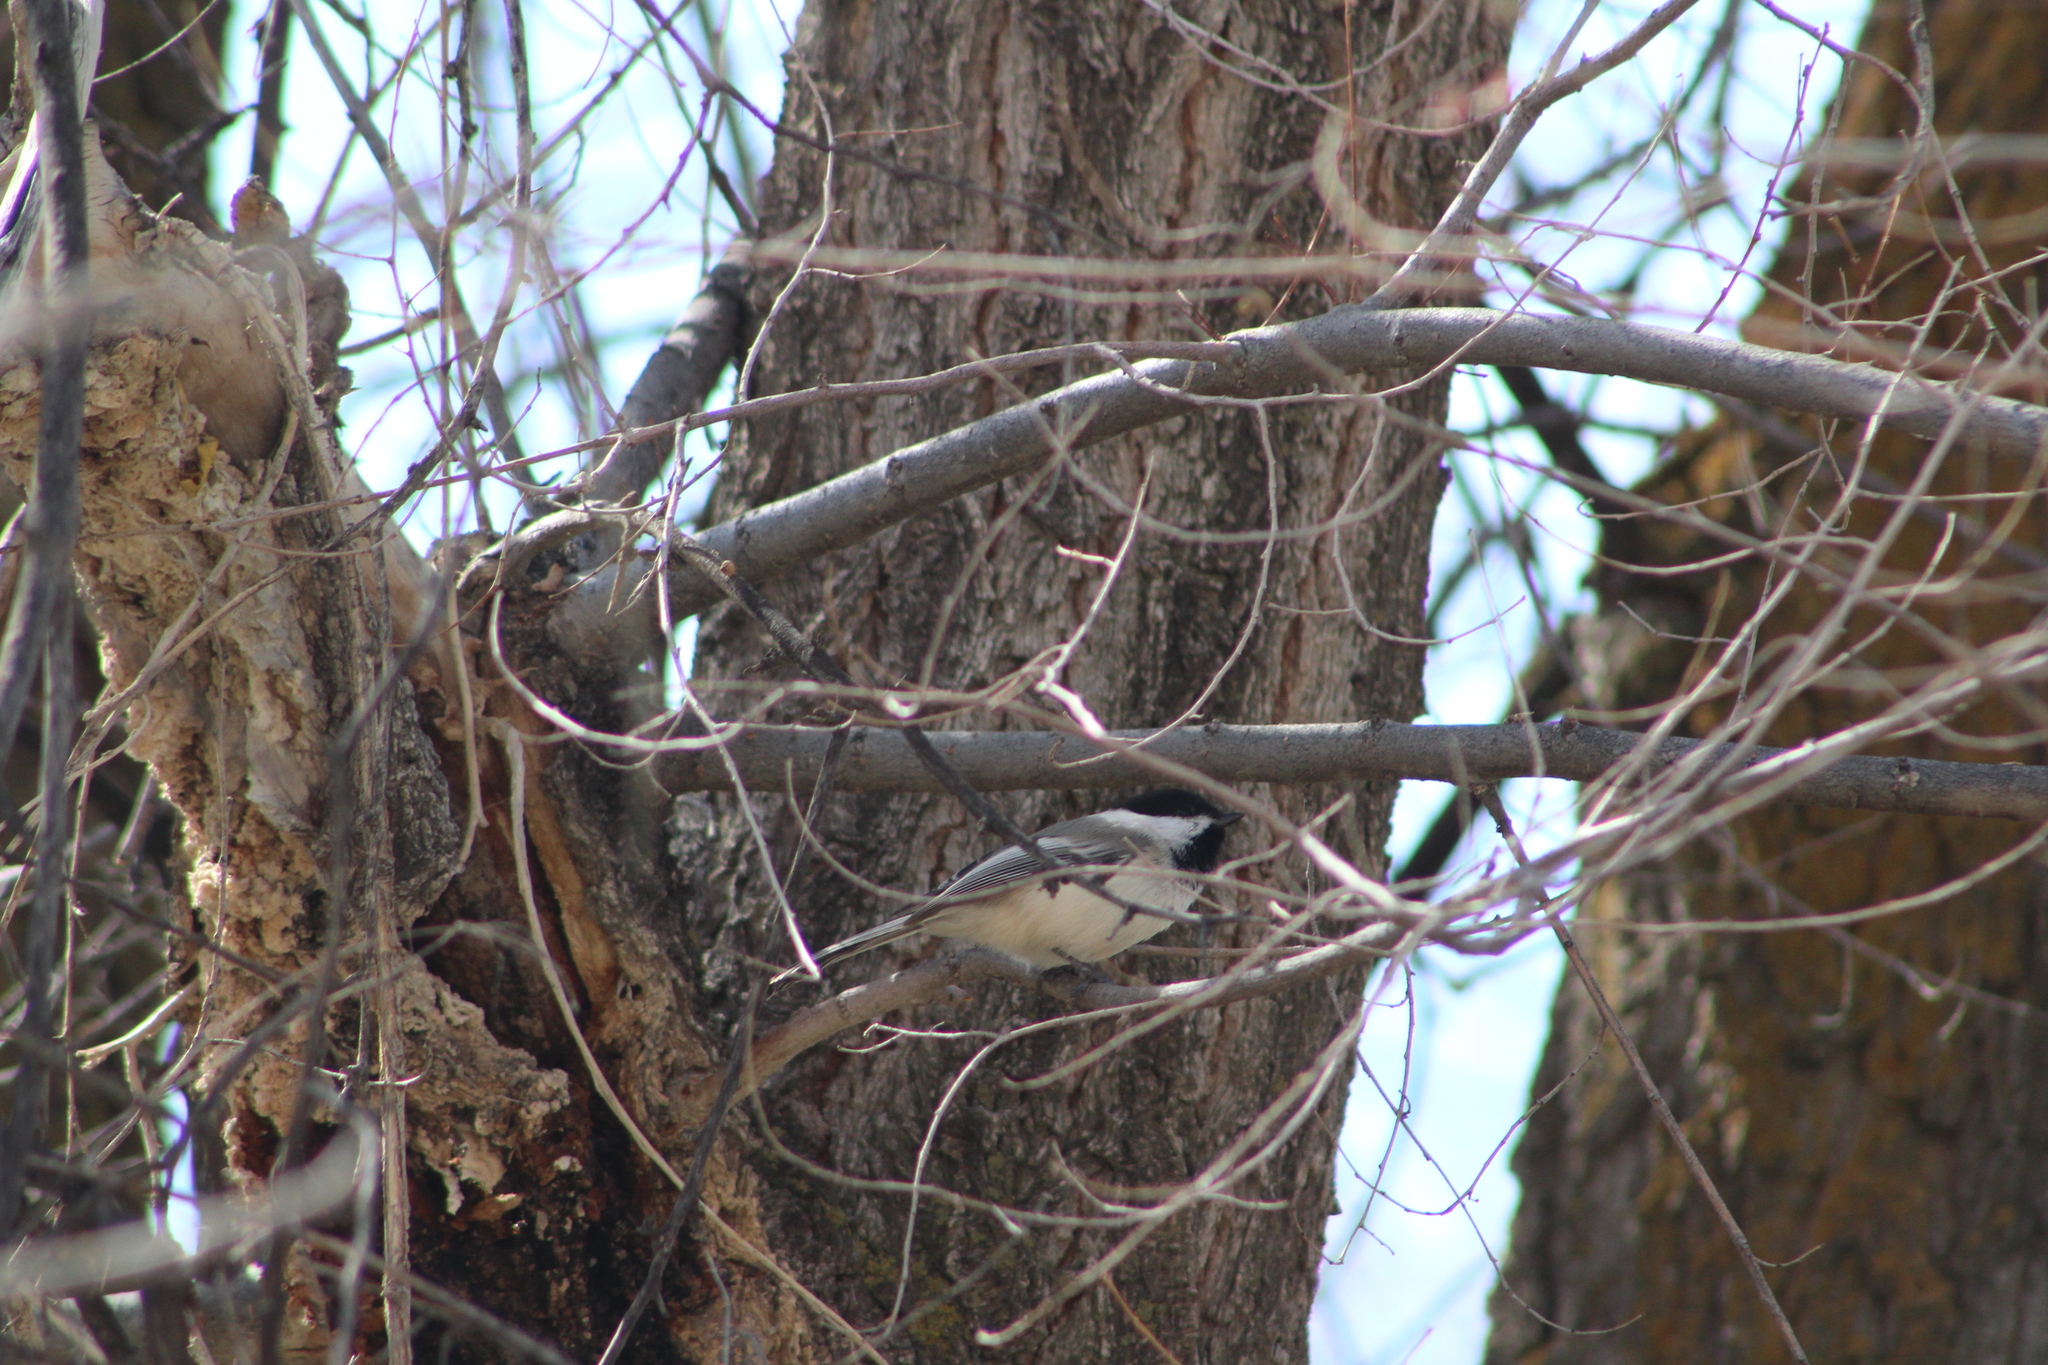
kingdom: Animalia
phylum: Chordata
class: Aves
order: Passeriformes
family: Paridae
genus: Poecile
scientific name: Poecile atricapillus
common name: Black-capped chickadee
